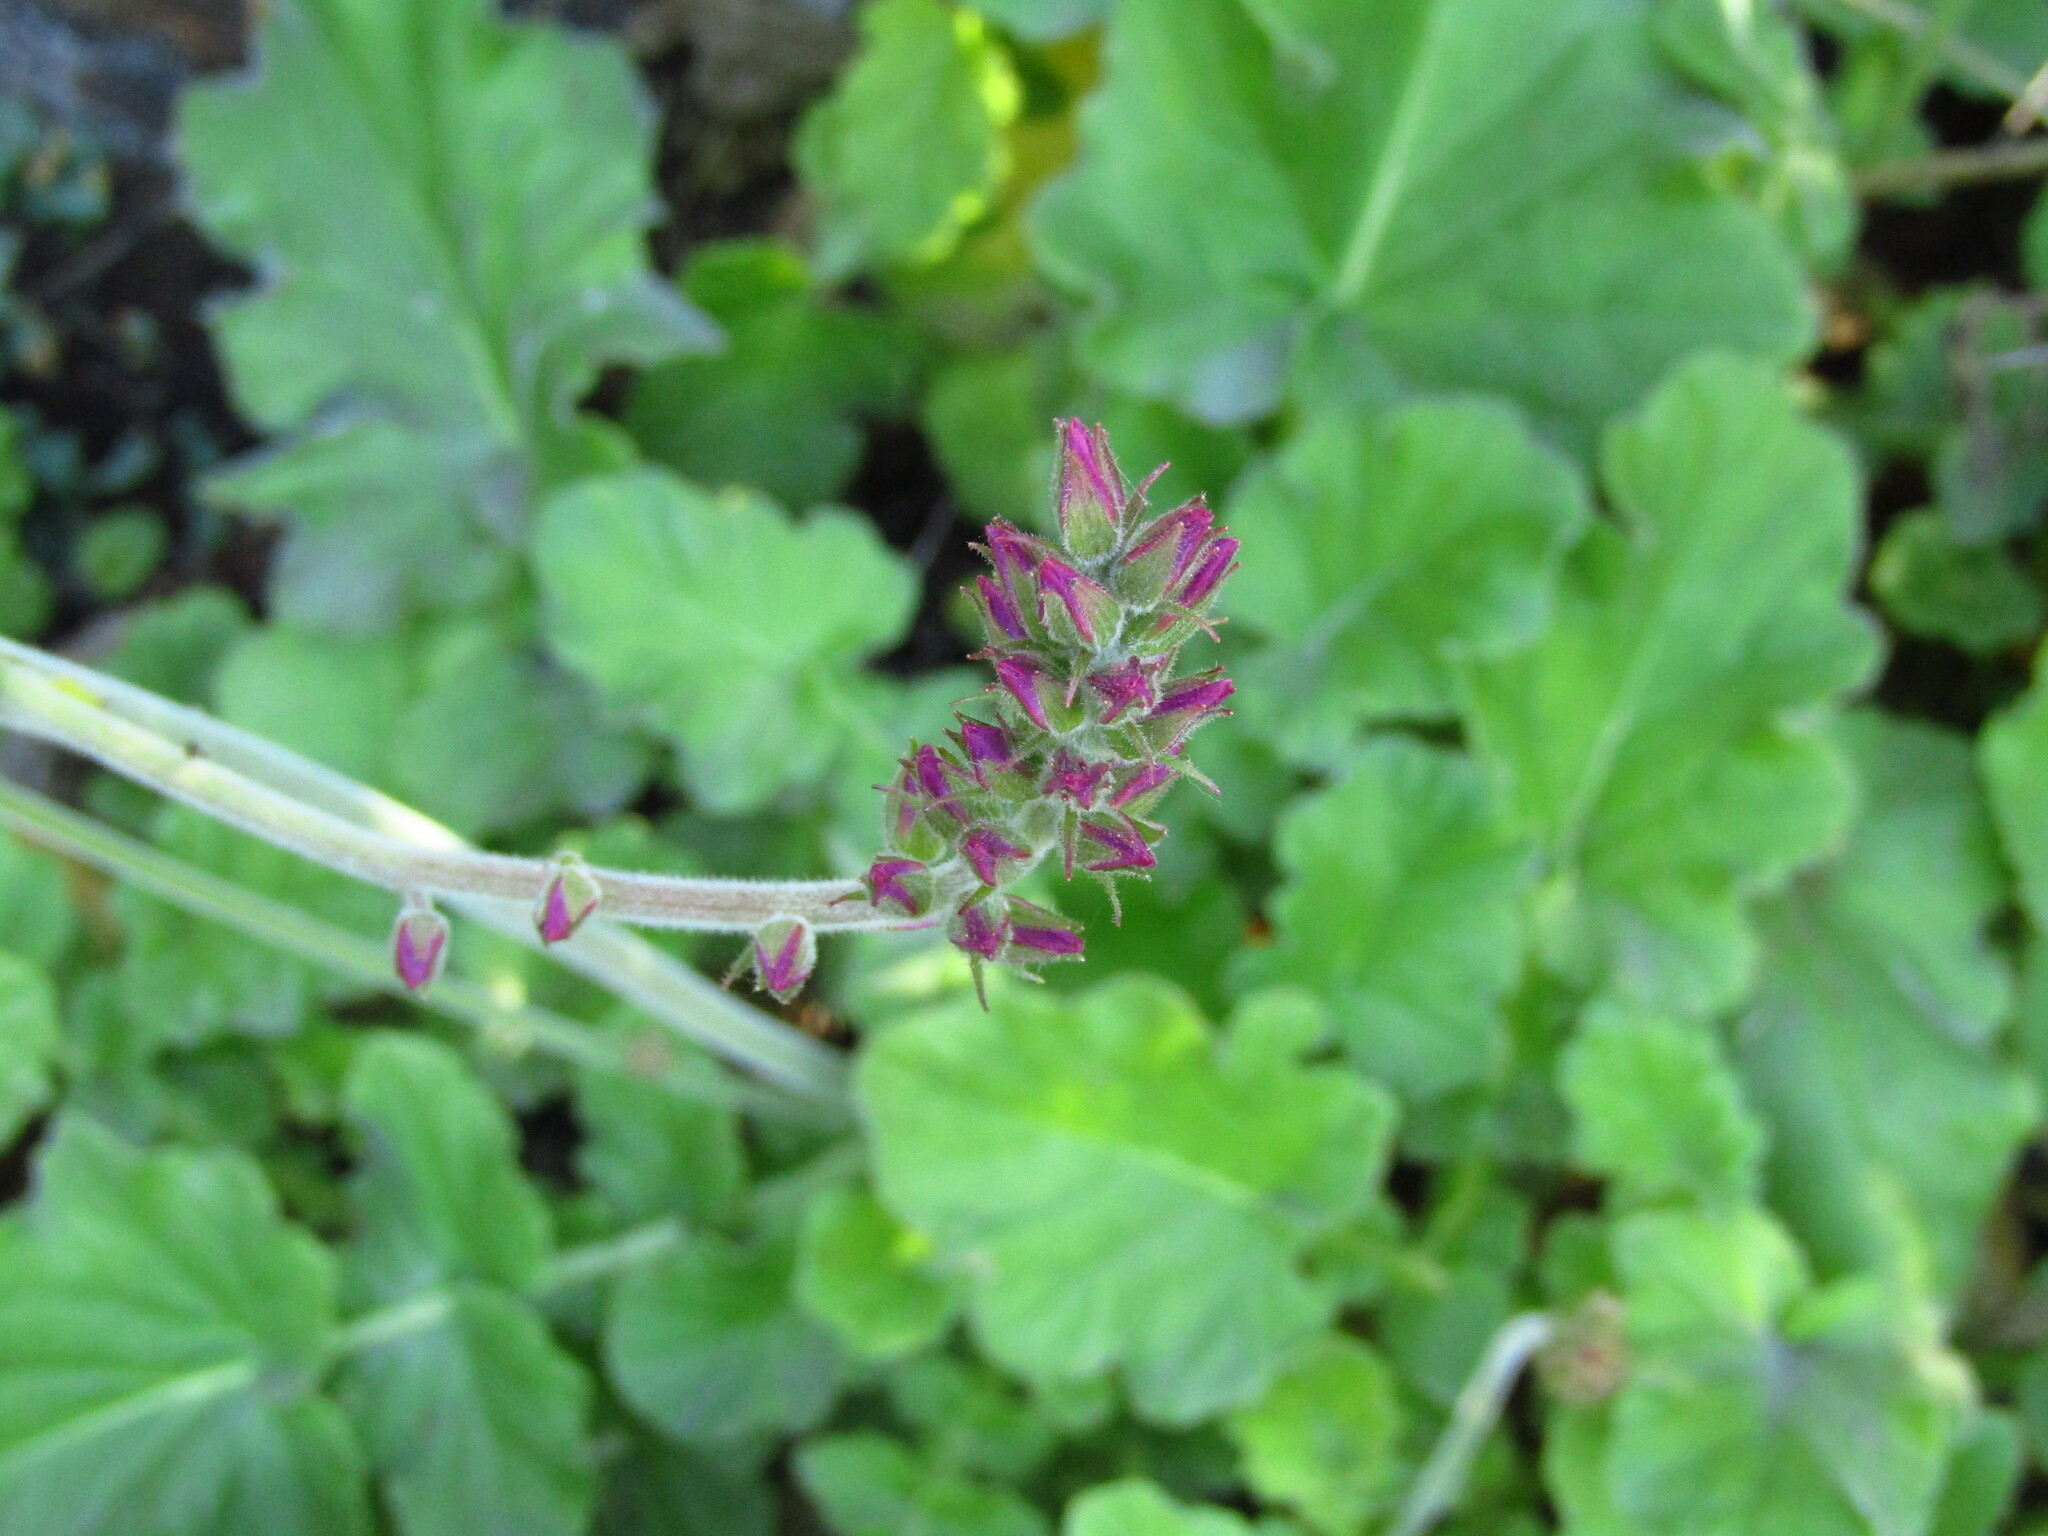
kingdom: Plantae
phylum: Tracheophyta
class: Magnoliopsida
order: Geraniales
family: Francoaceae
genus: Francoa
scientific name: Francoa appendiculata
